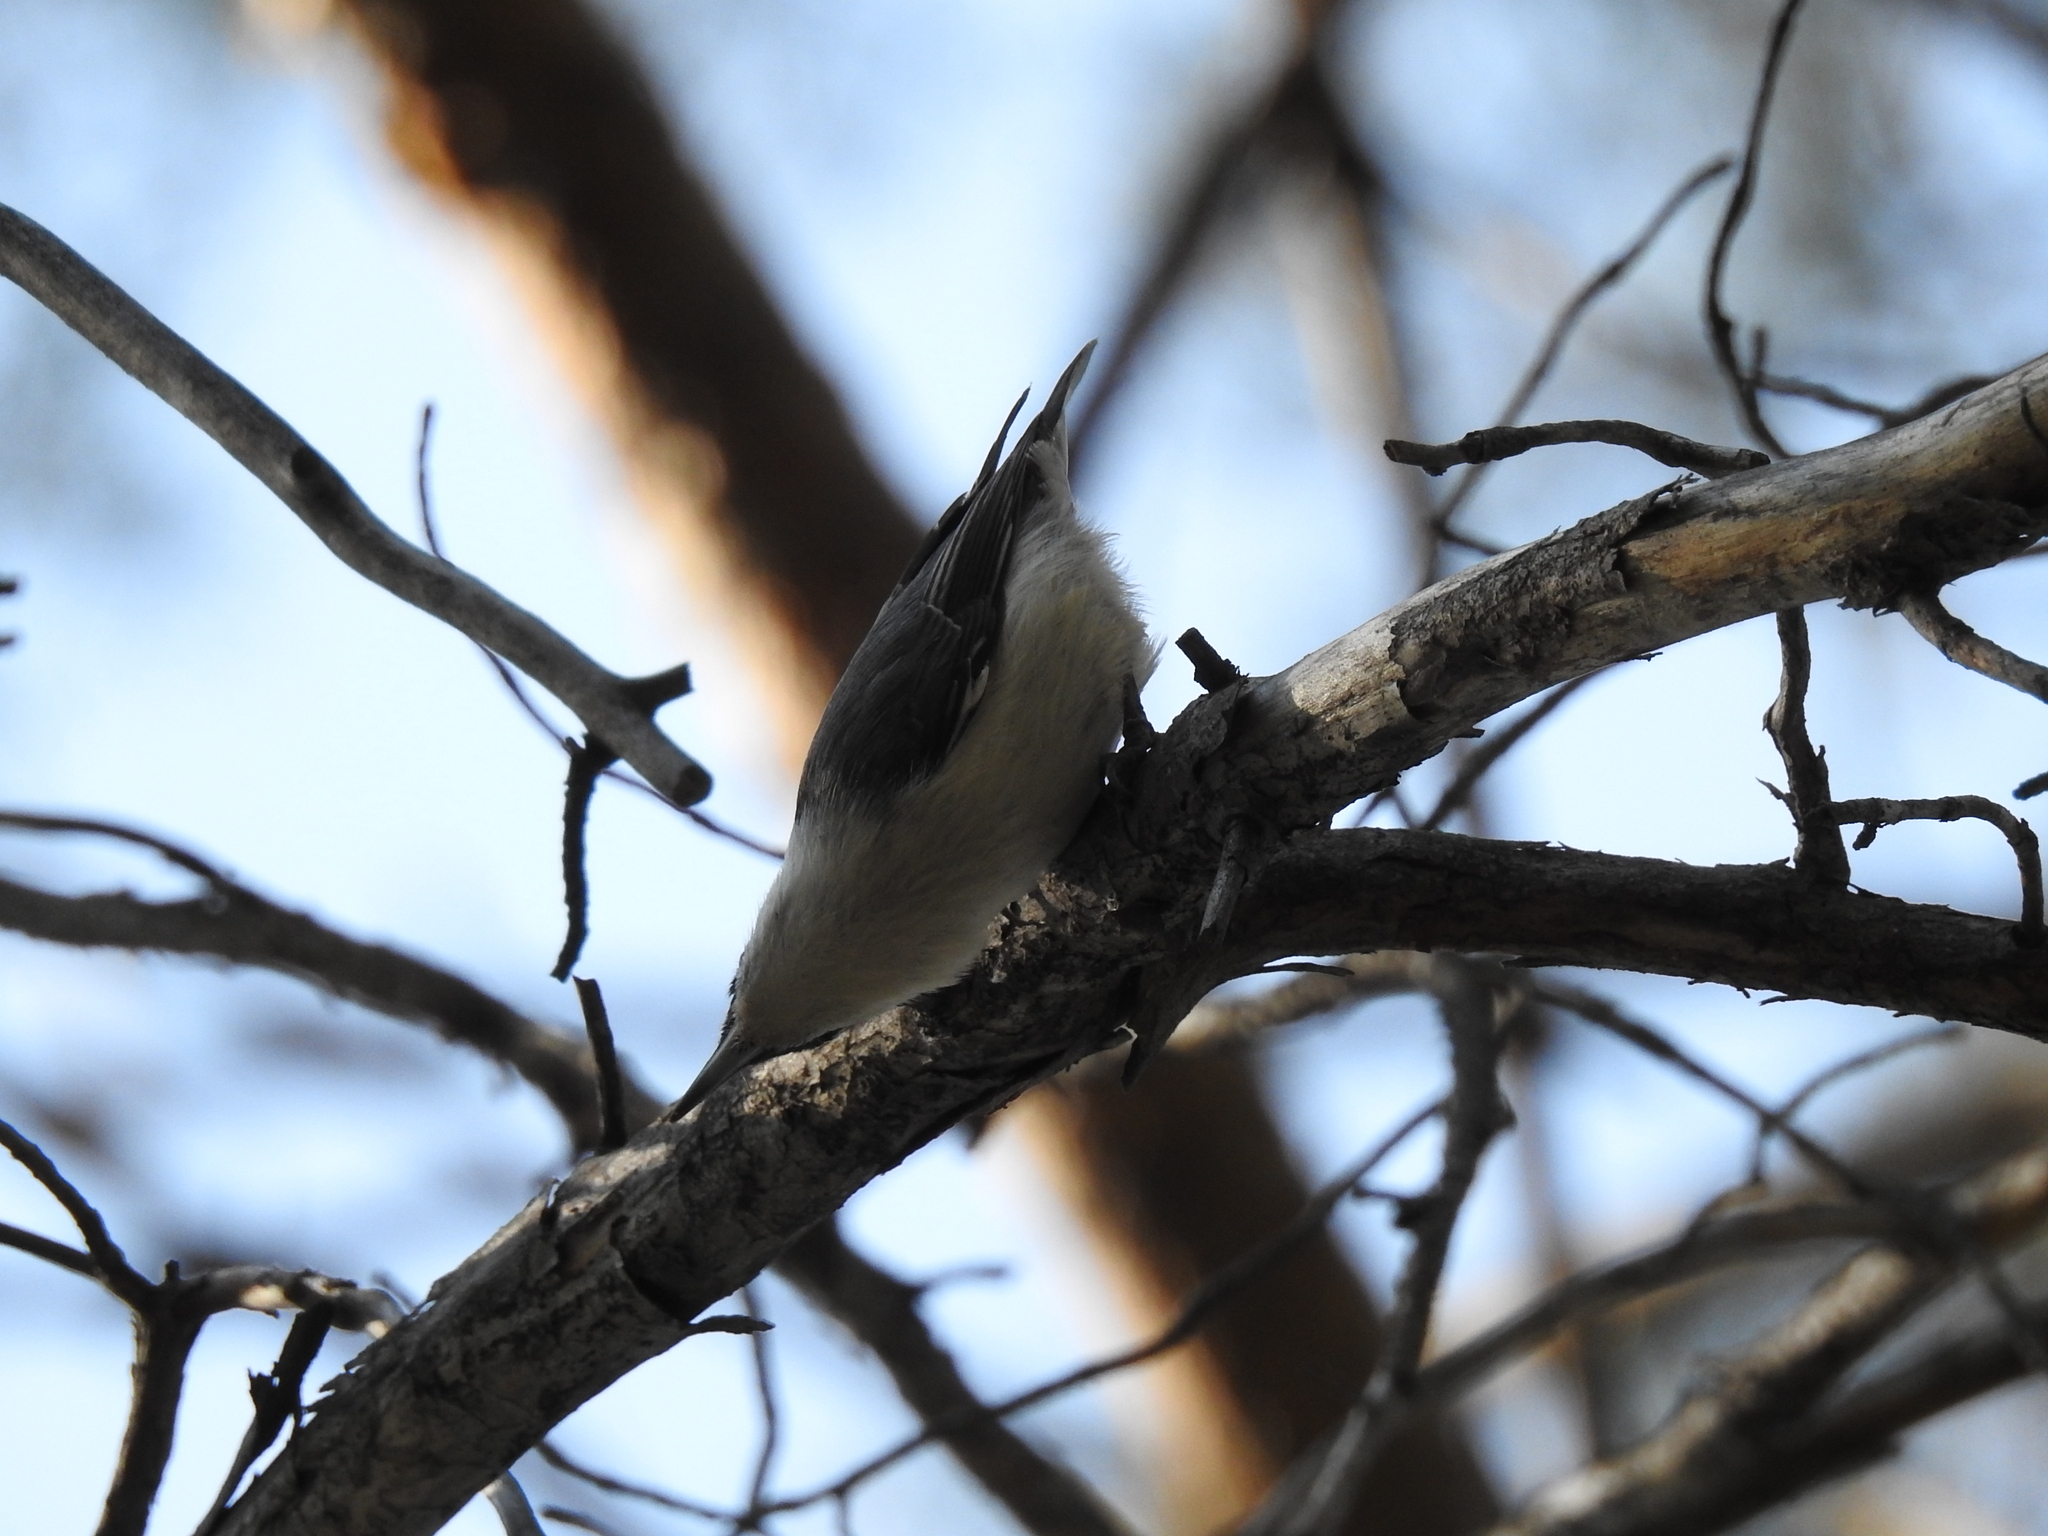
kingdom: Animalia
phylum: Chordata
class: Aves
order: Passeriformes
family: Sittidae
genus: Sitta
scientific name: Sitta europaea
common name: Eurasian nuthatch
